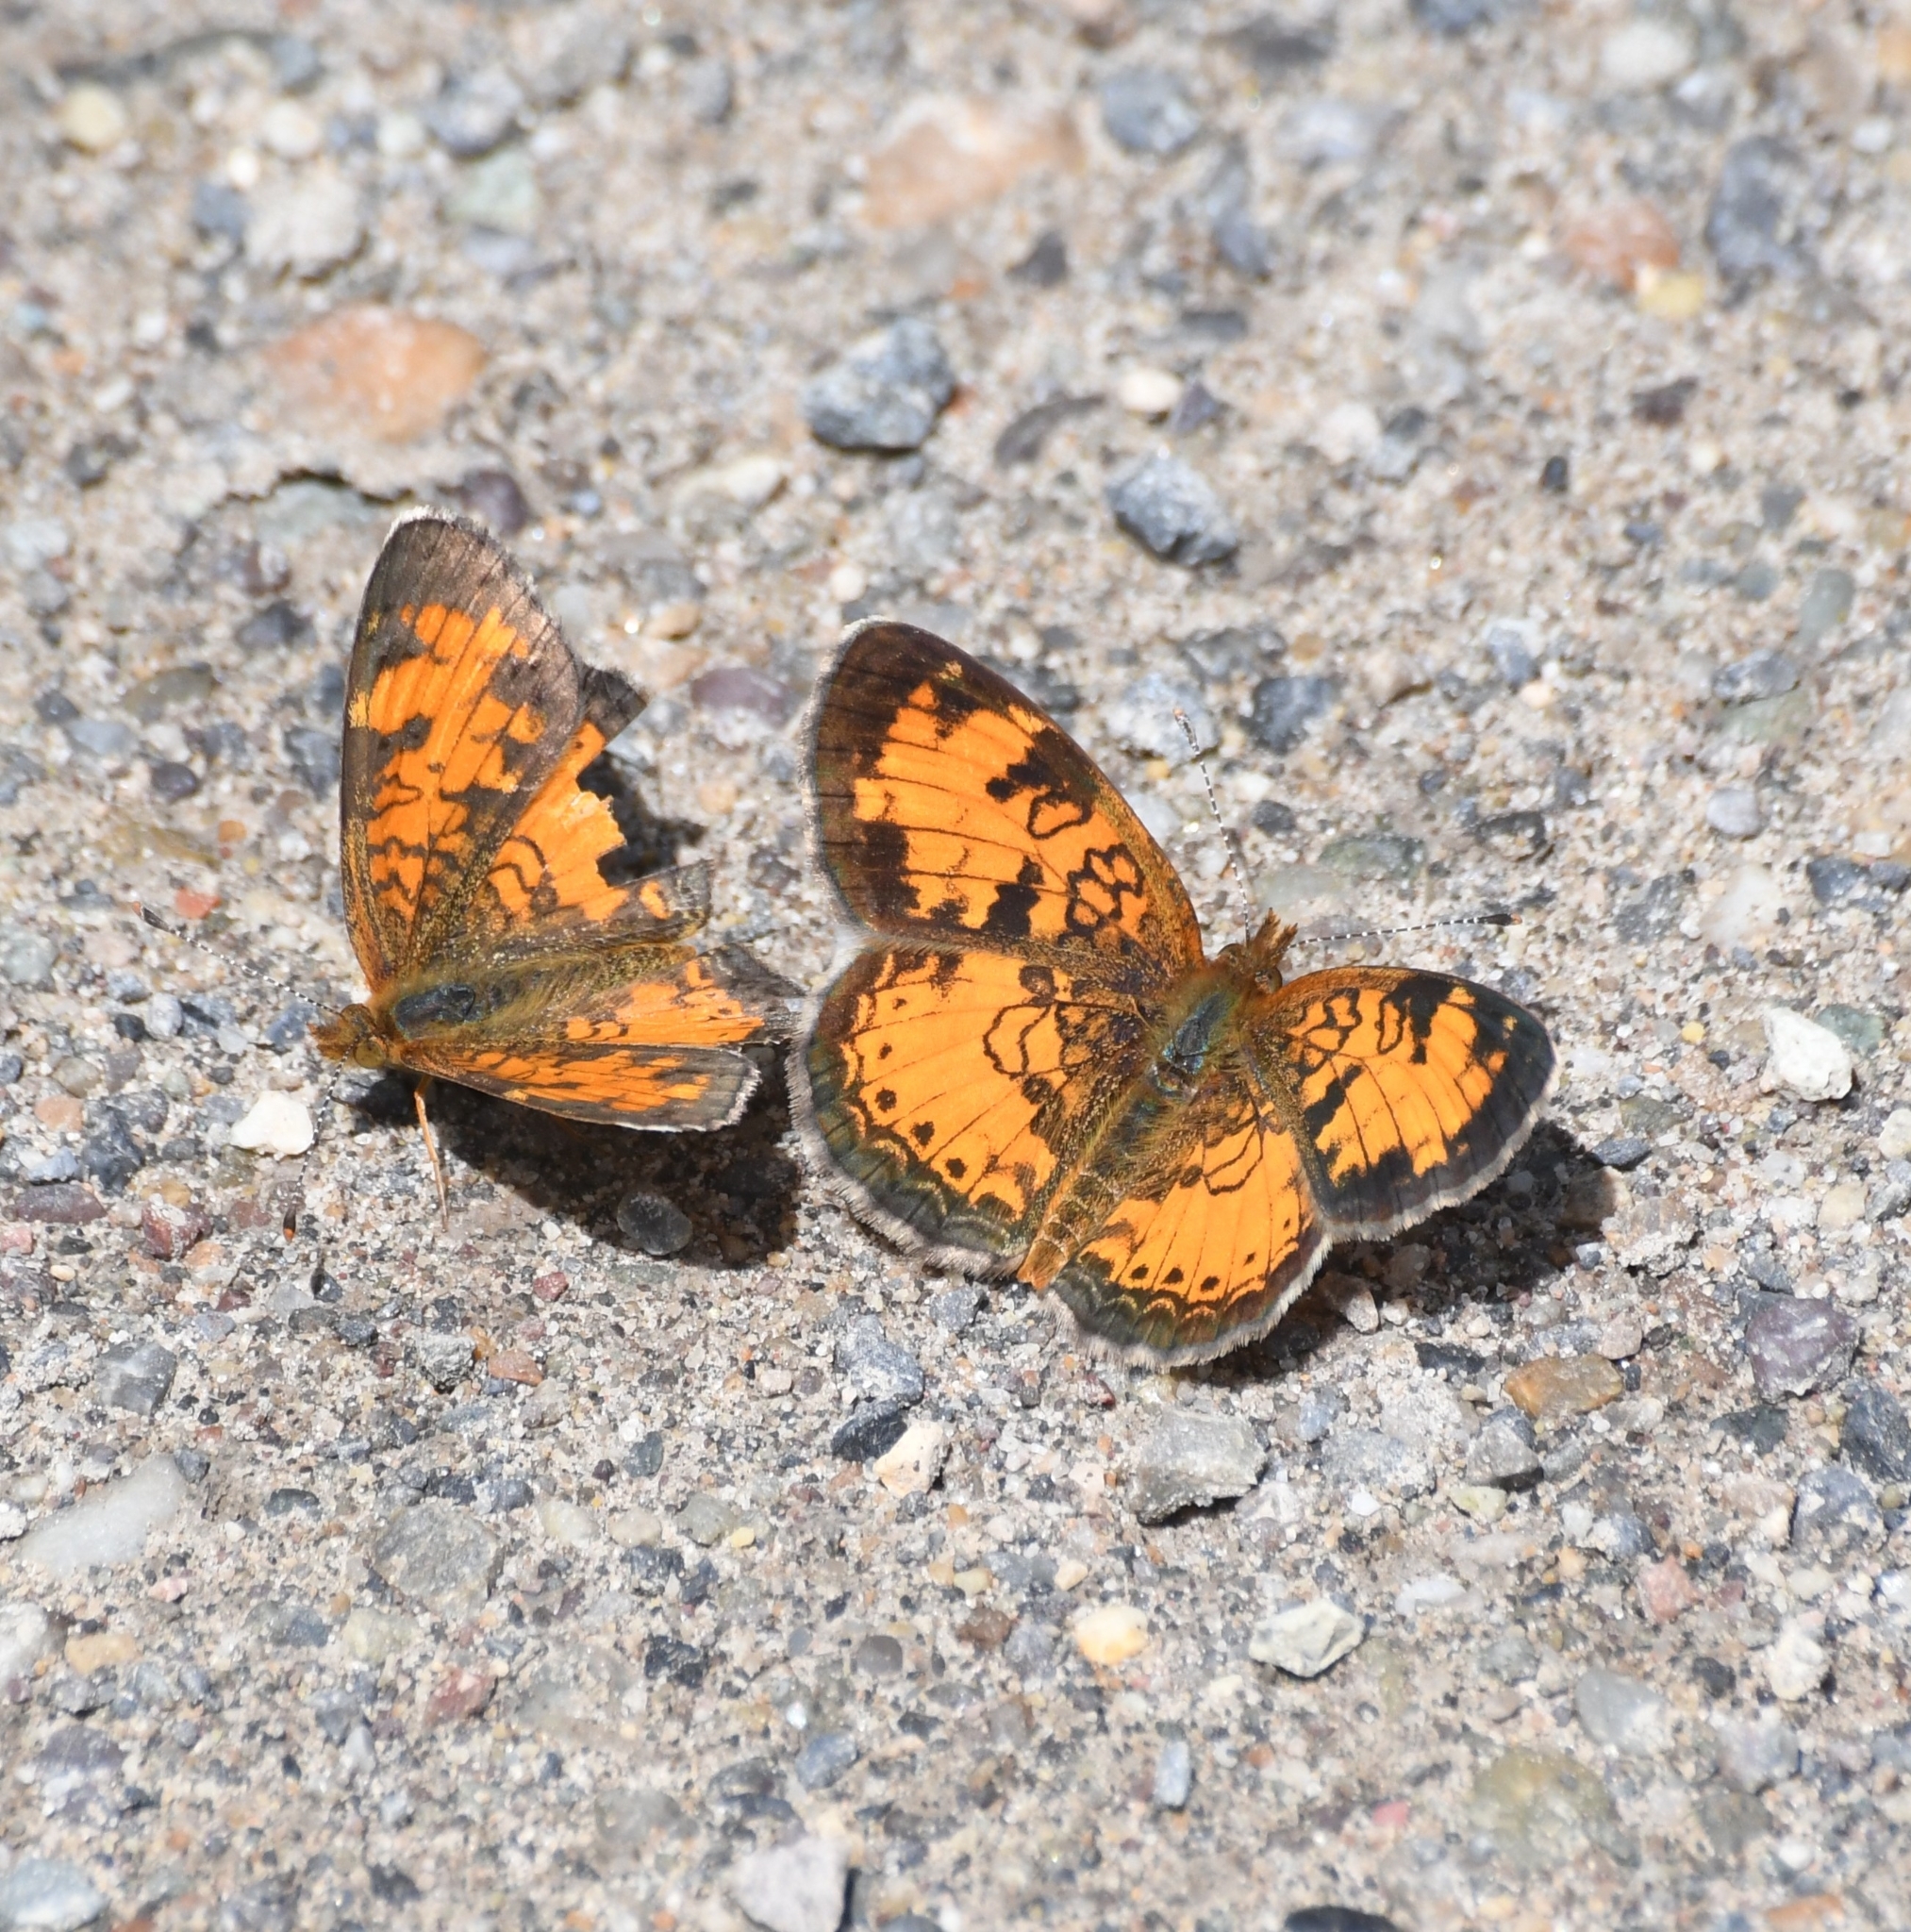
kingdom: Animalia
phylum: Arthropoda
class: Insecta
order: Lepidoptera
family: Nymphalidae
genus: Phyciodes
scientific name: Phyciodes tharos
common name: Pearl crescent
